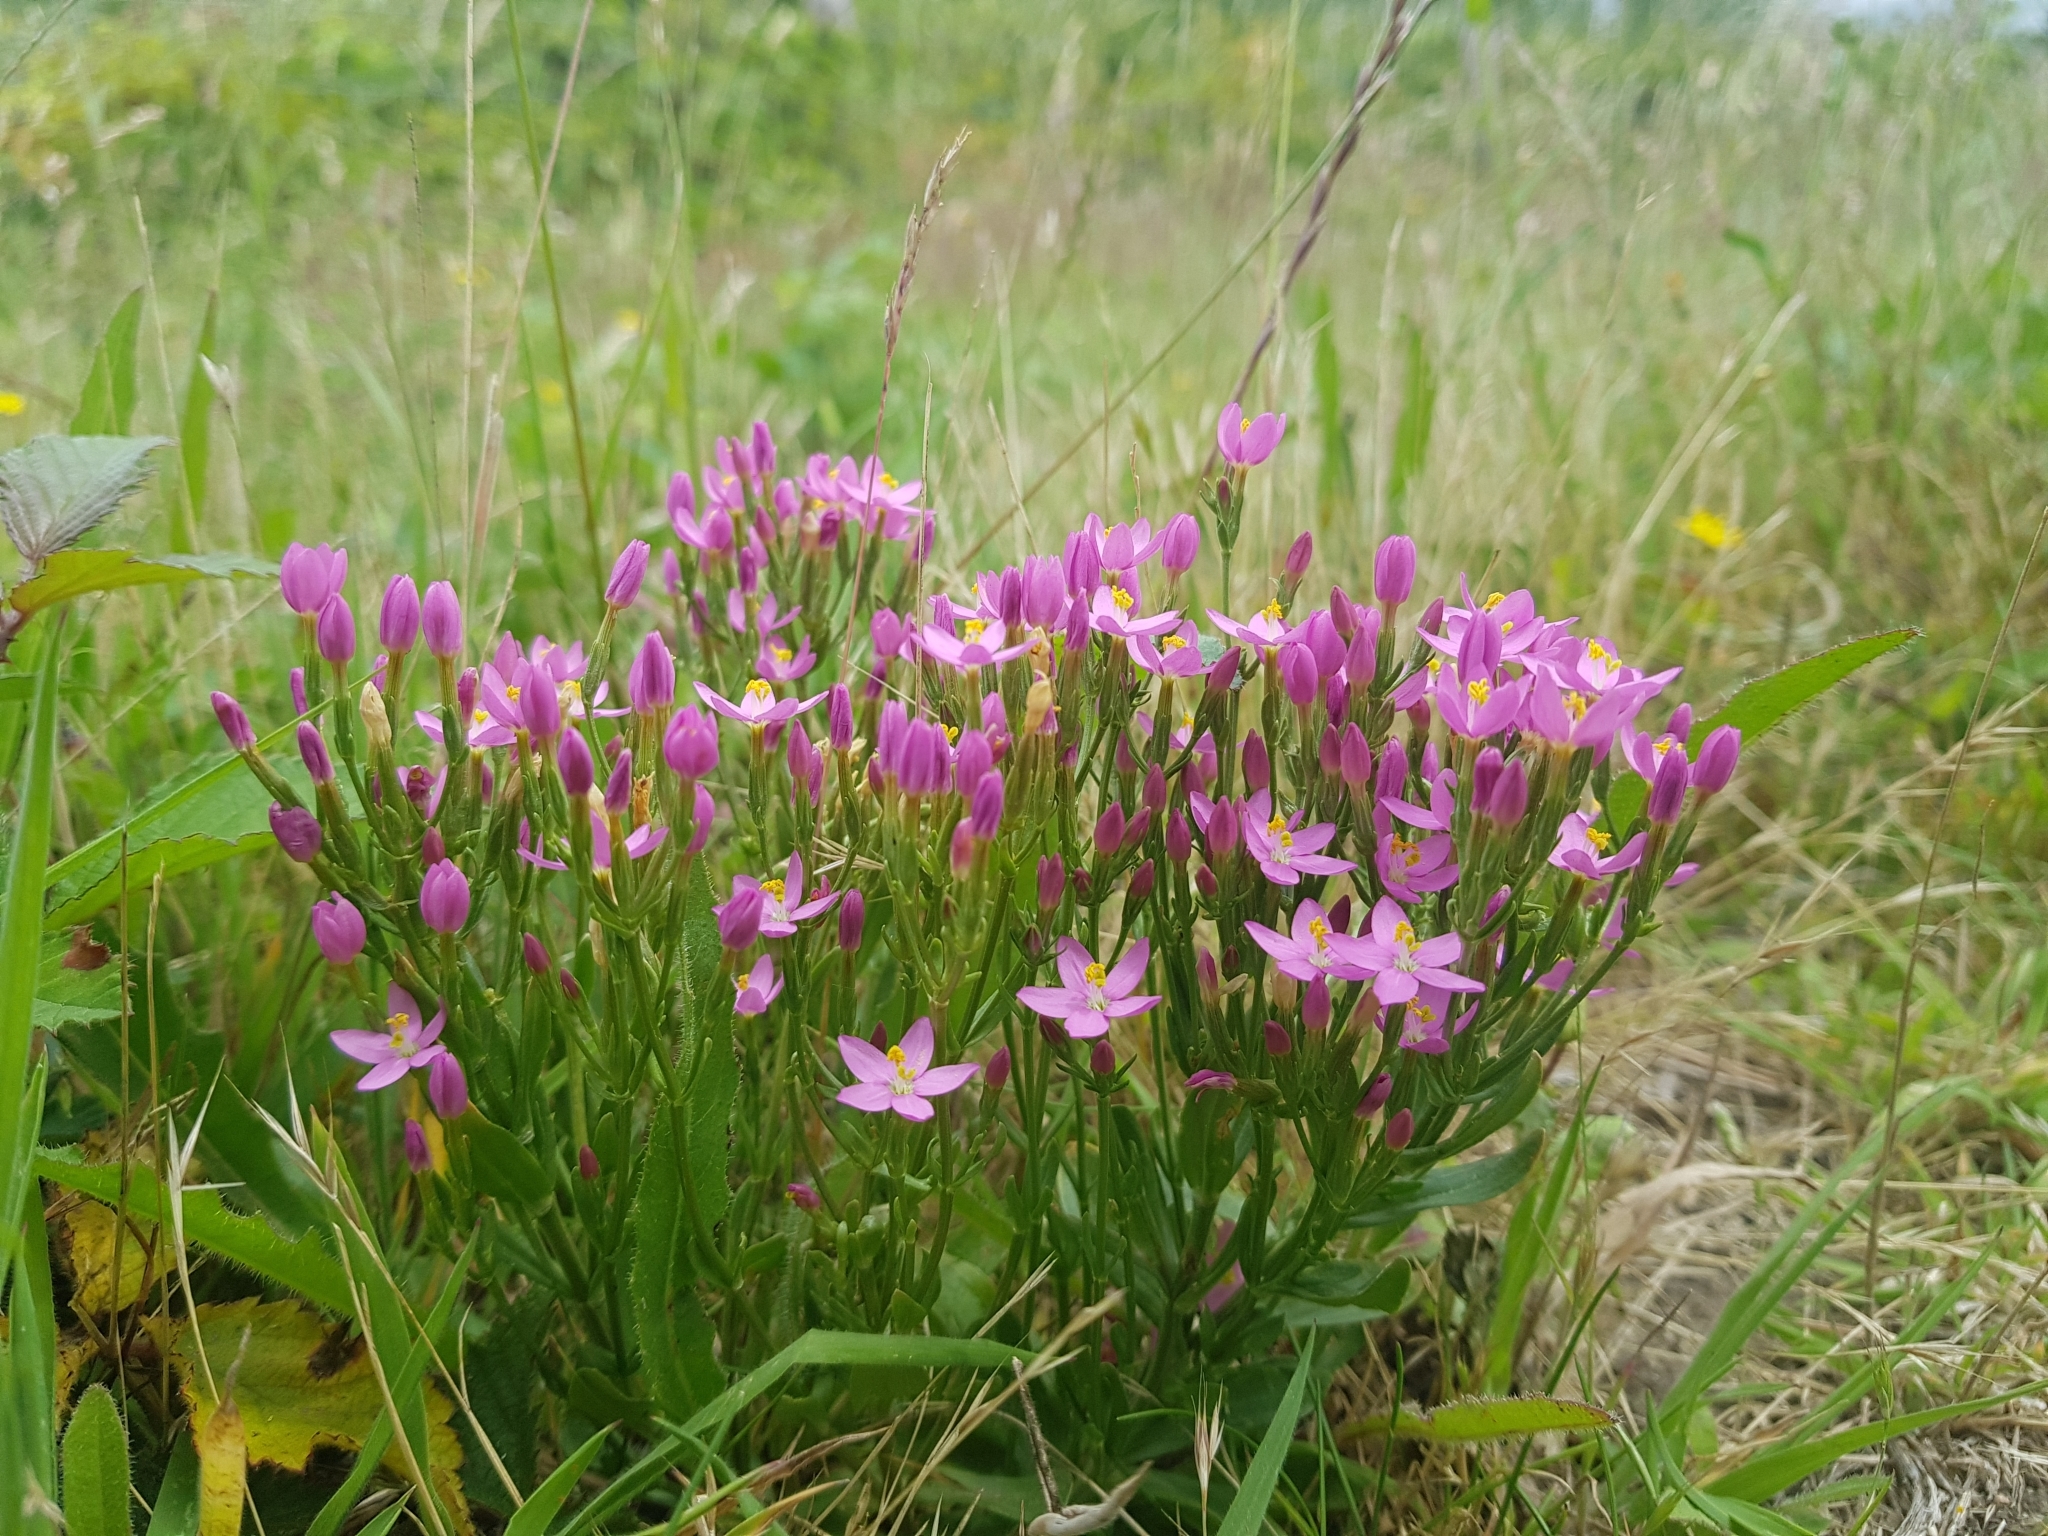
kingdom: Plantae
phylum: Tracheophyta
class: Magnoliopsida
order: Gentianales
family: Gentianaceae
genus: Centaurium
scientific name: Centaurium erythraea
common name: Common centaury
